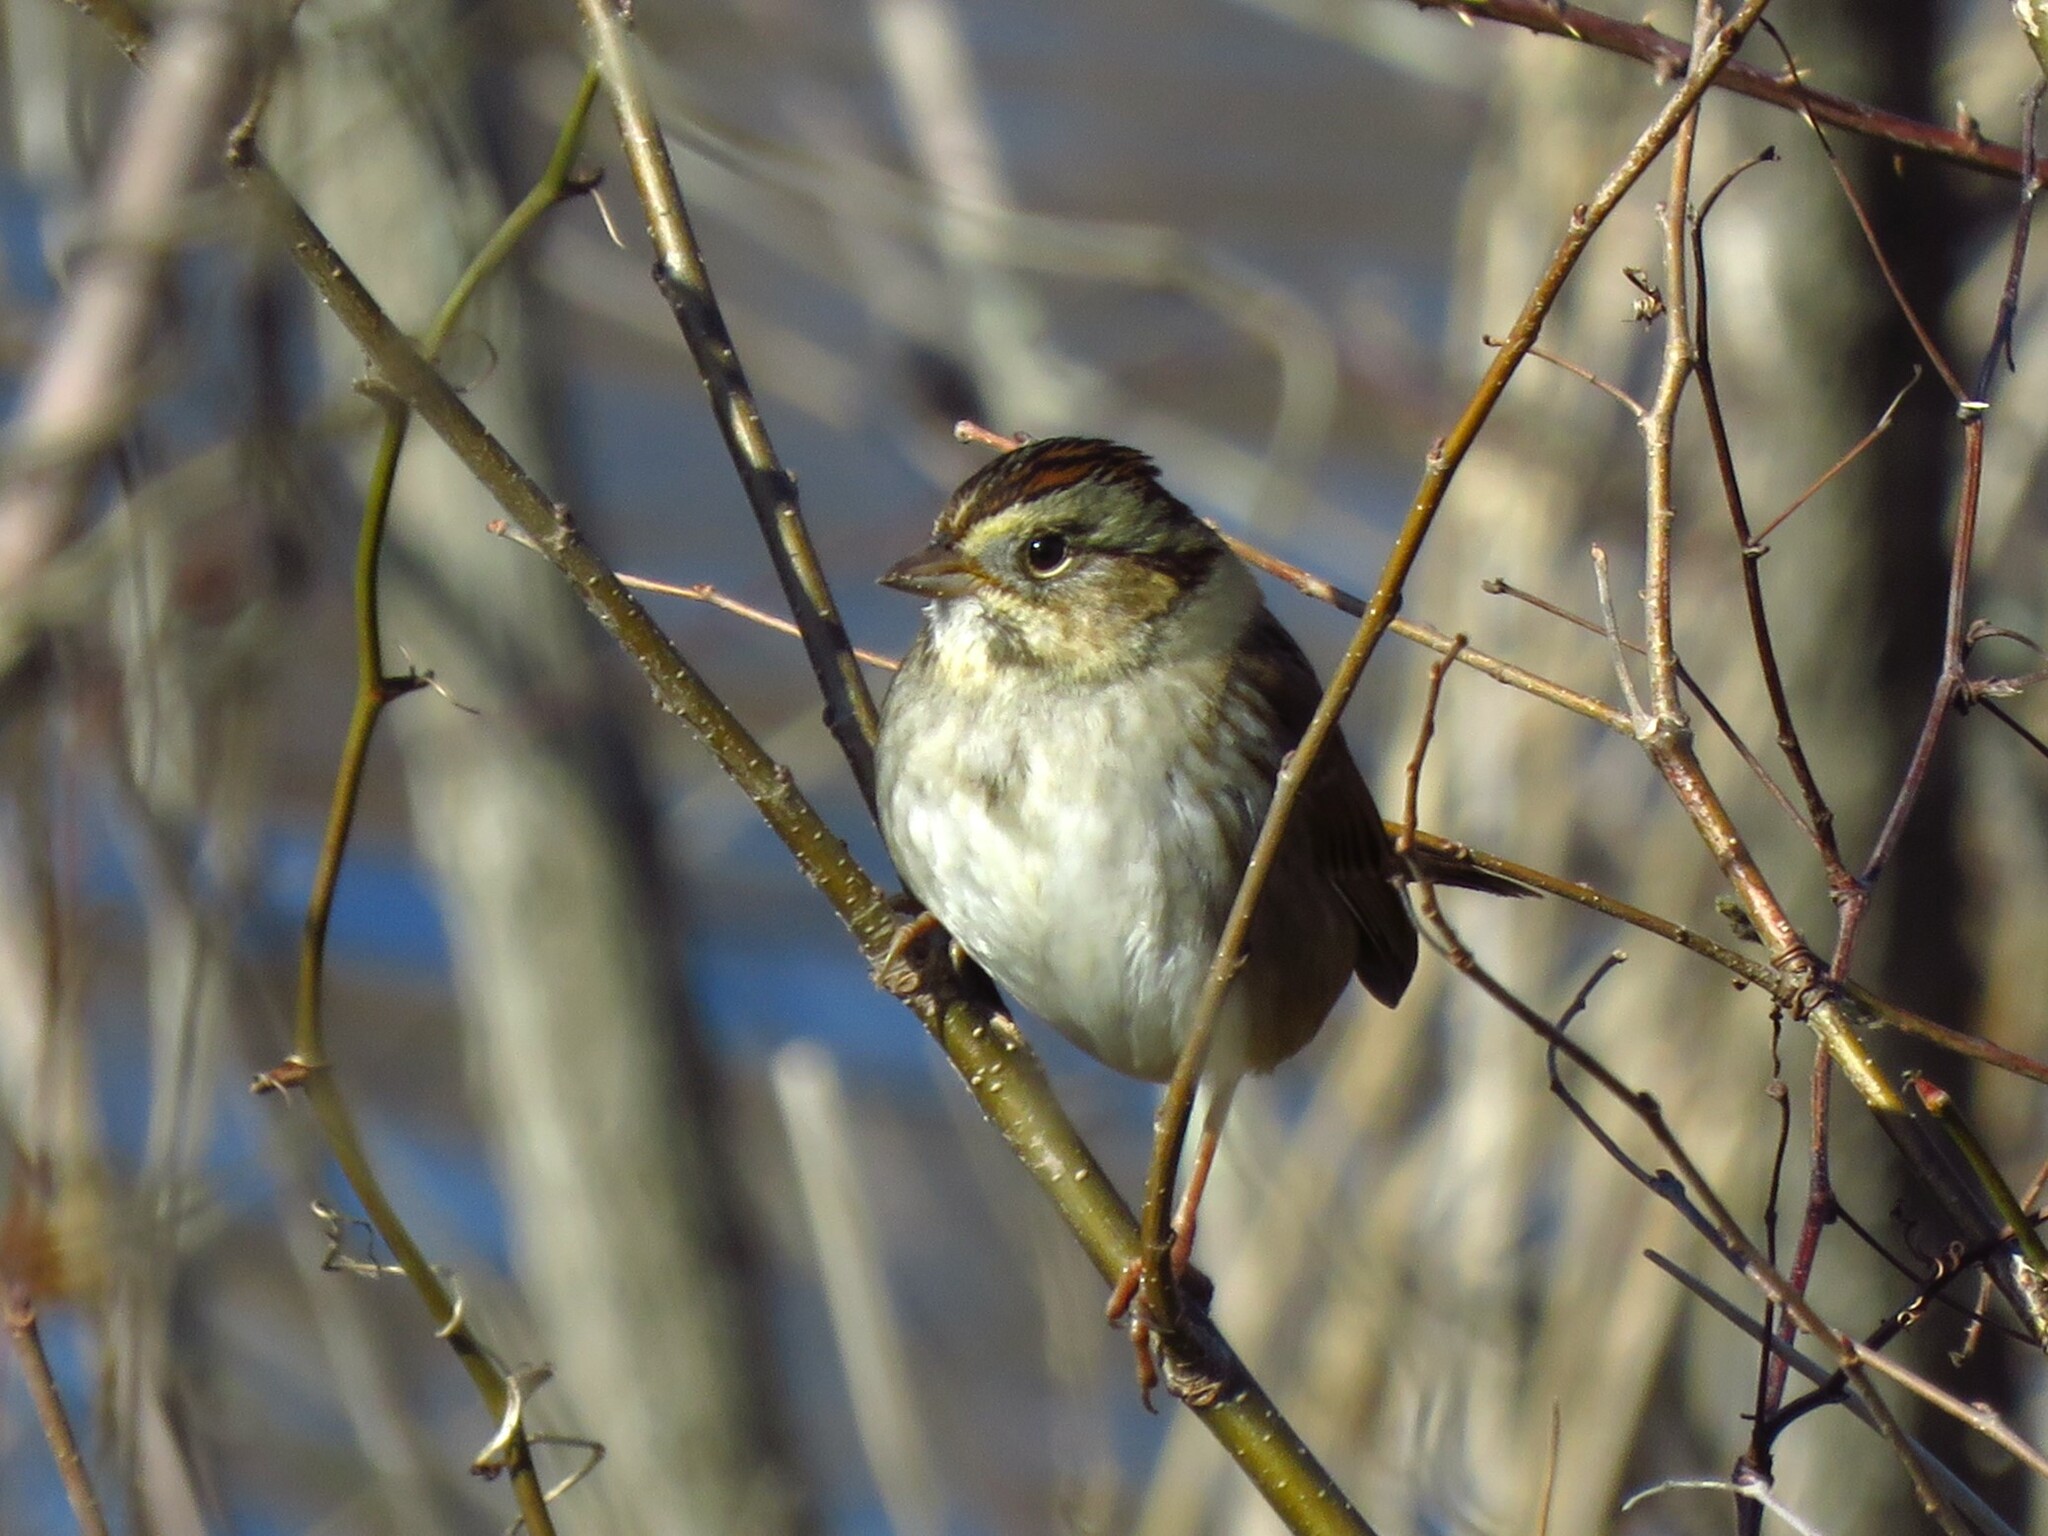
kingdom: Animalia
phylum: Chordata
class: Aves
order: Passeriformes
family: Passerellidae
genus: Melospiza
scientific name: Melospiza georgiana
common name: Swamp sparrow
